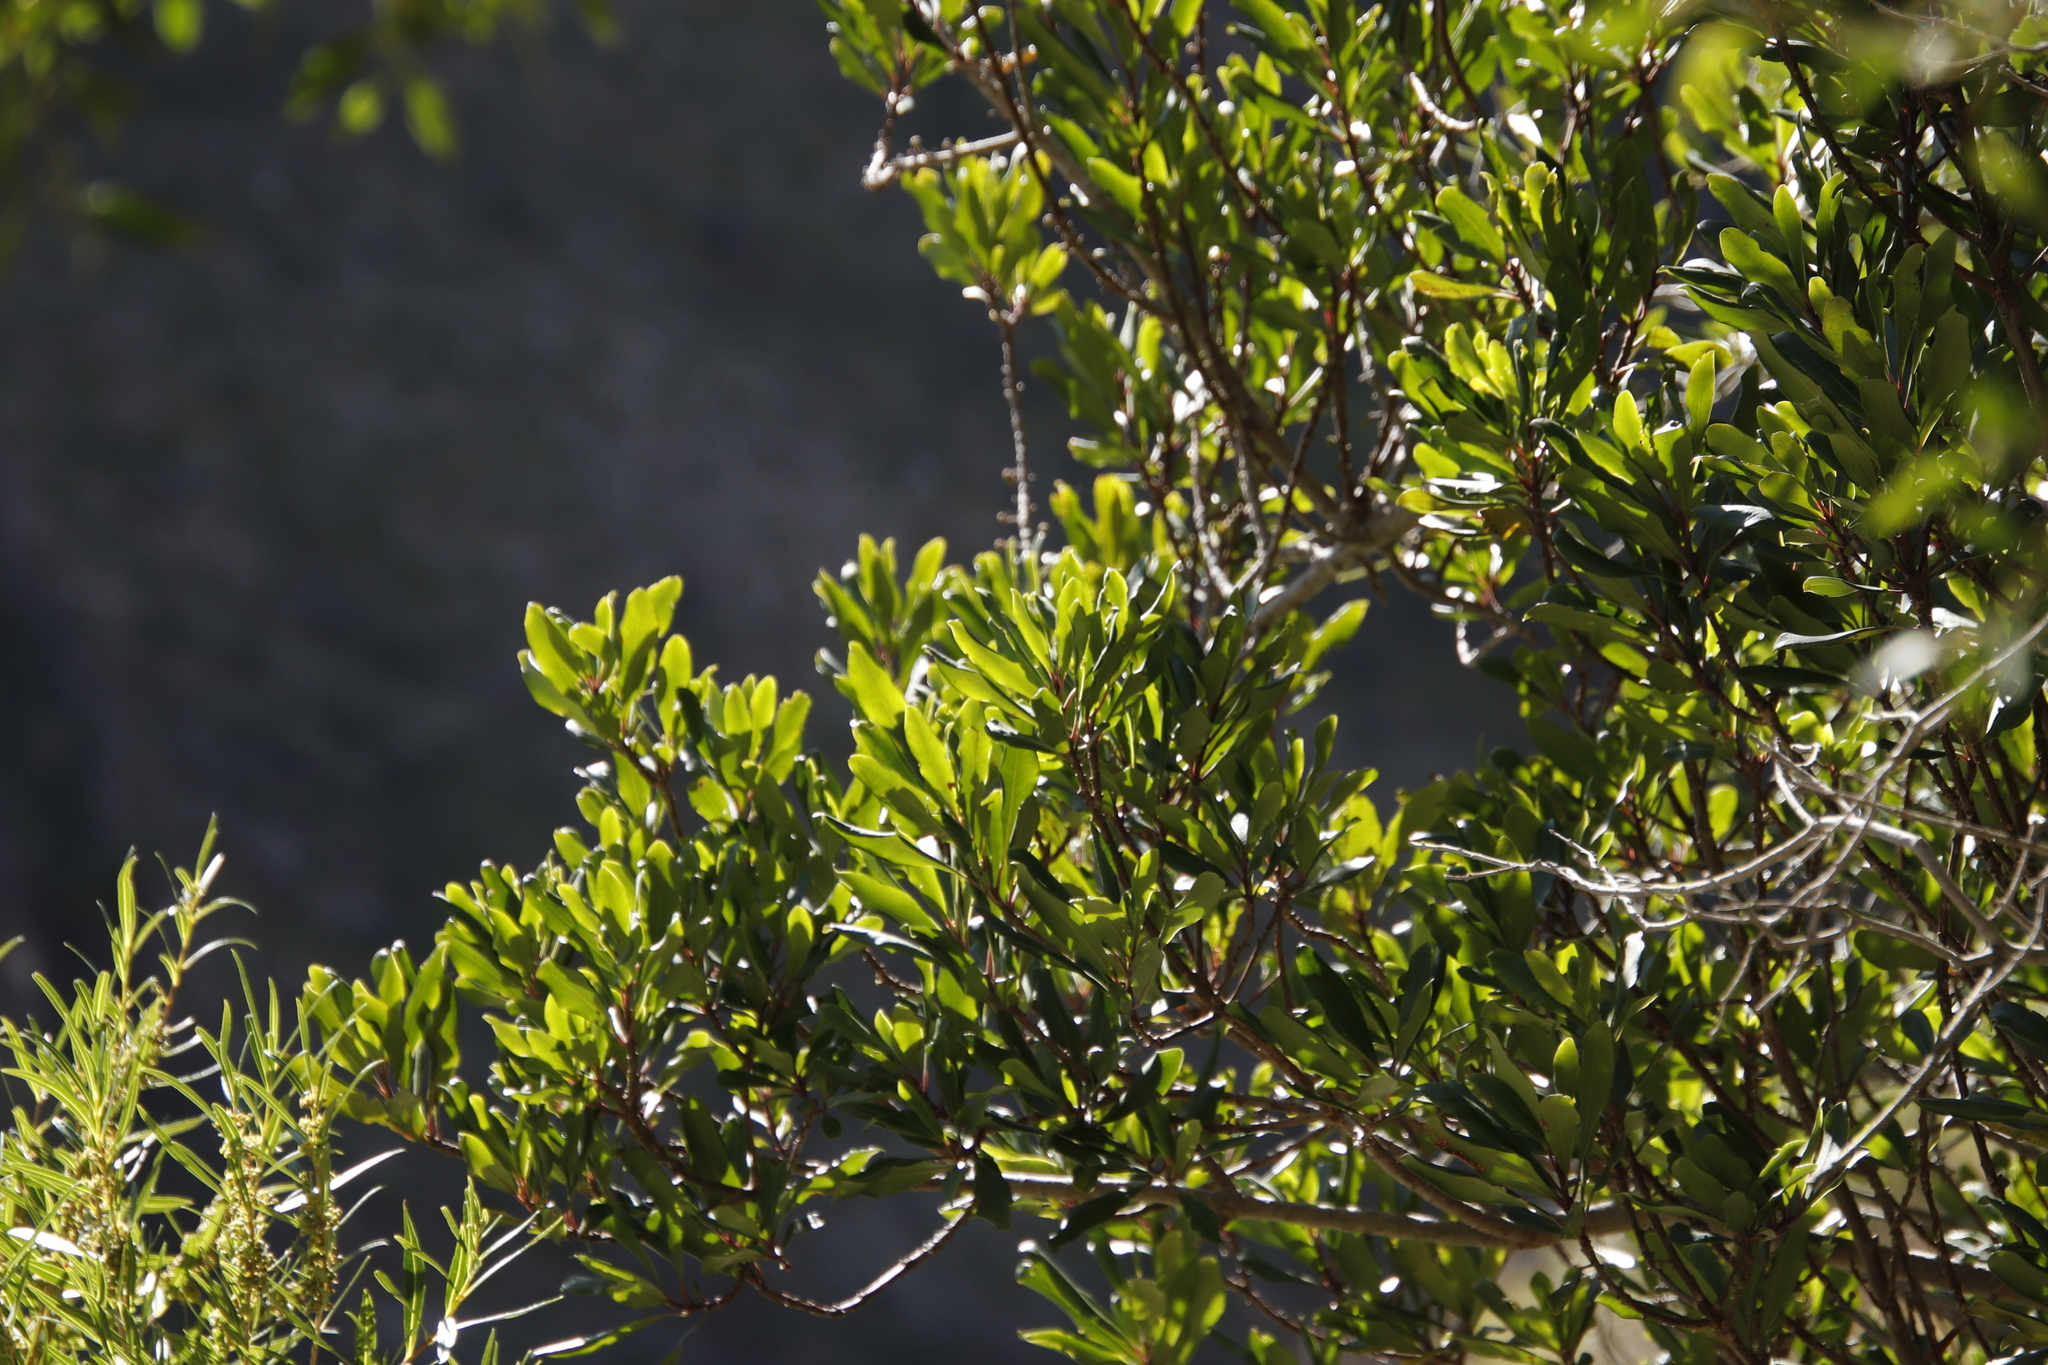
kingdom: Plantae
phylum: Tracheophyta
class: Magnoliopsida
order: Ericales
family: Primulaceae
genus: Myrsine
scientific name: Myrsine melanophloeos
